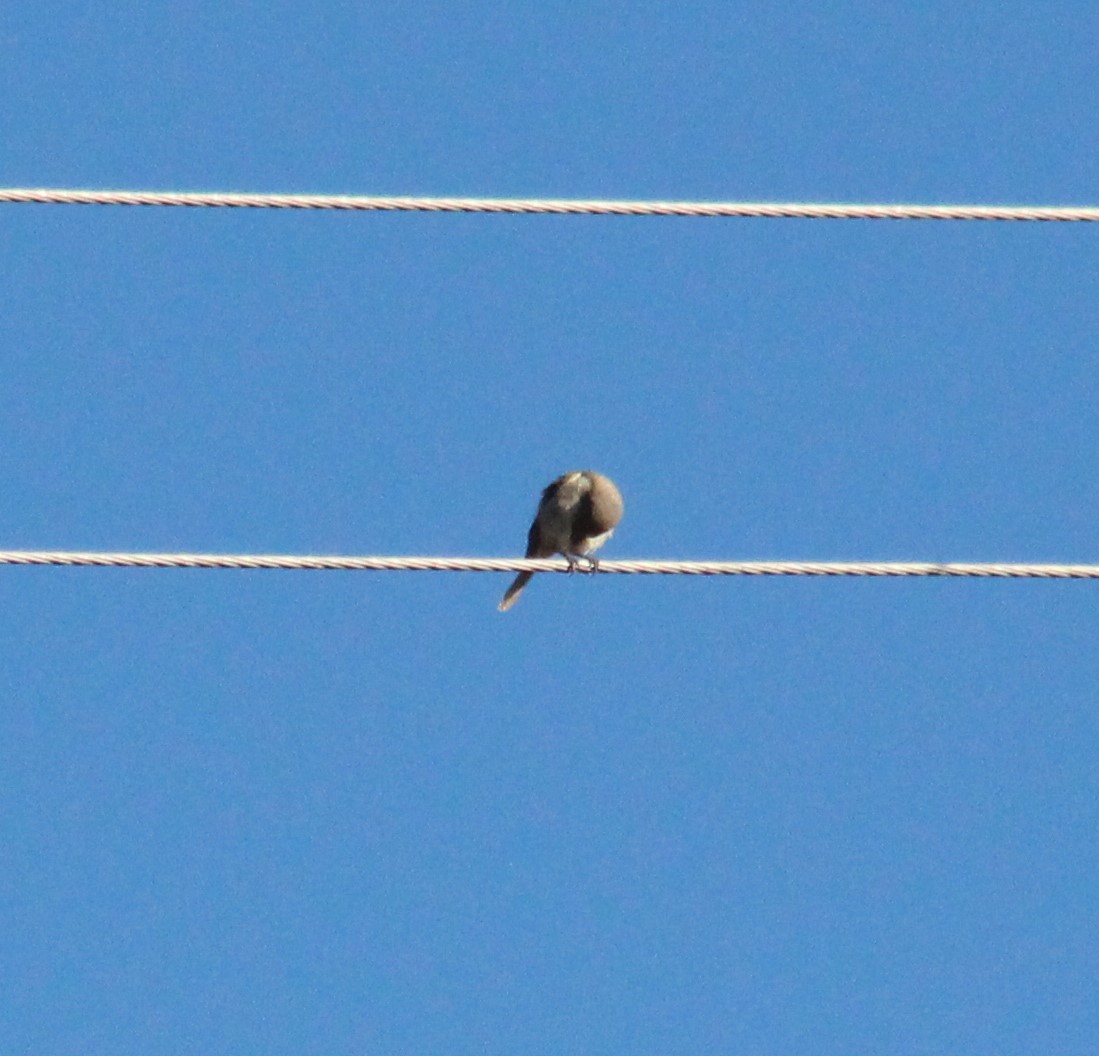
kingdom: Animalia
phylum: Chordata
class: Aves
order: Passeriformes
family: Laniidae
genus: Lanius
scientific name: Lanius senator
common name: Woodchat shrike
